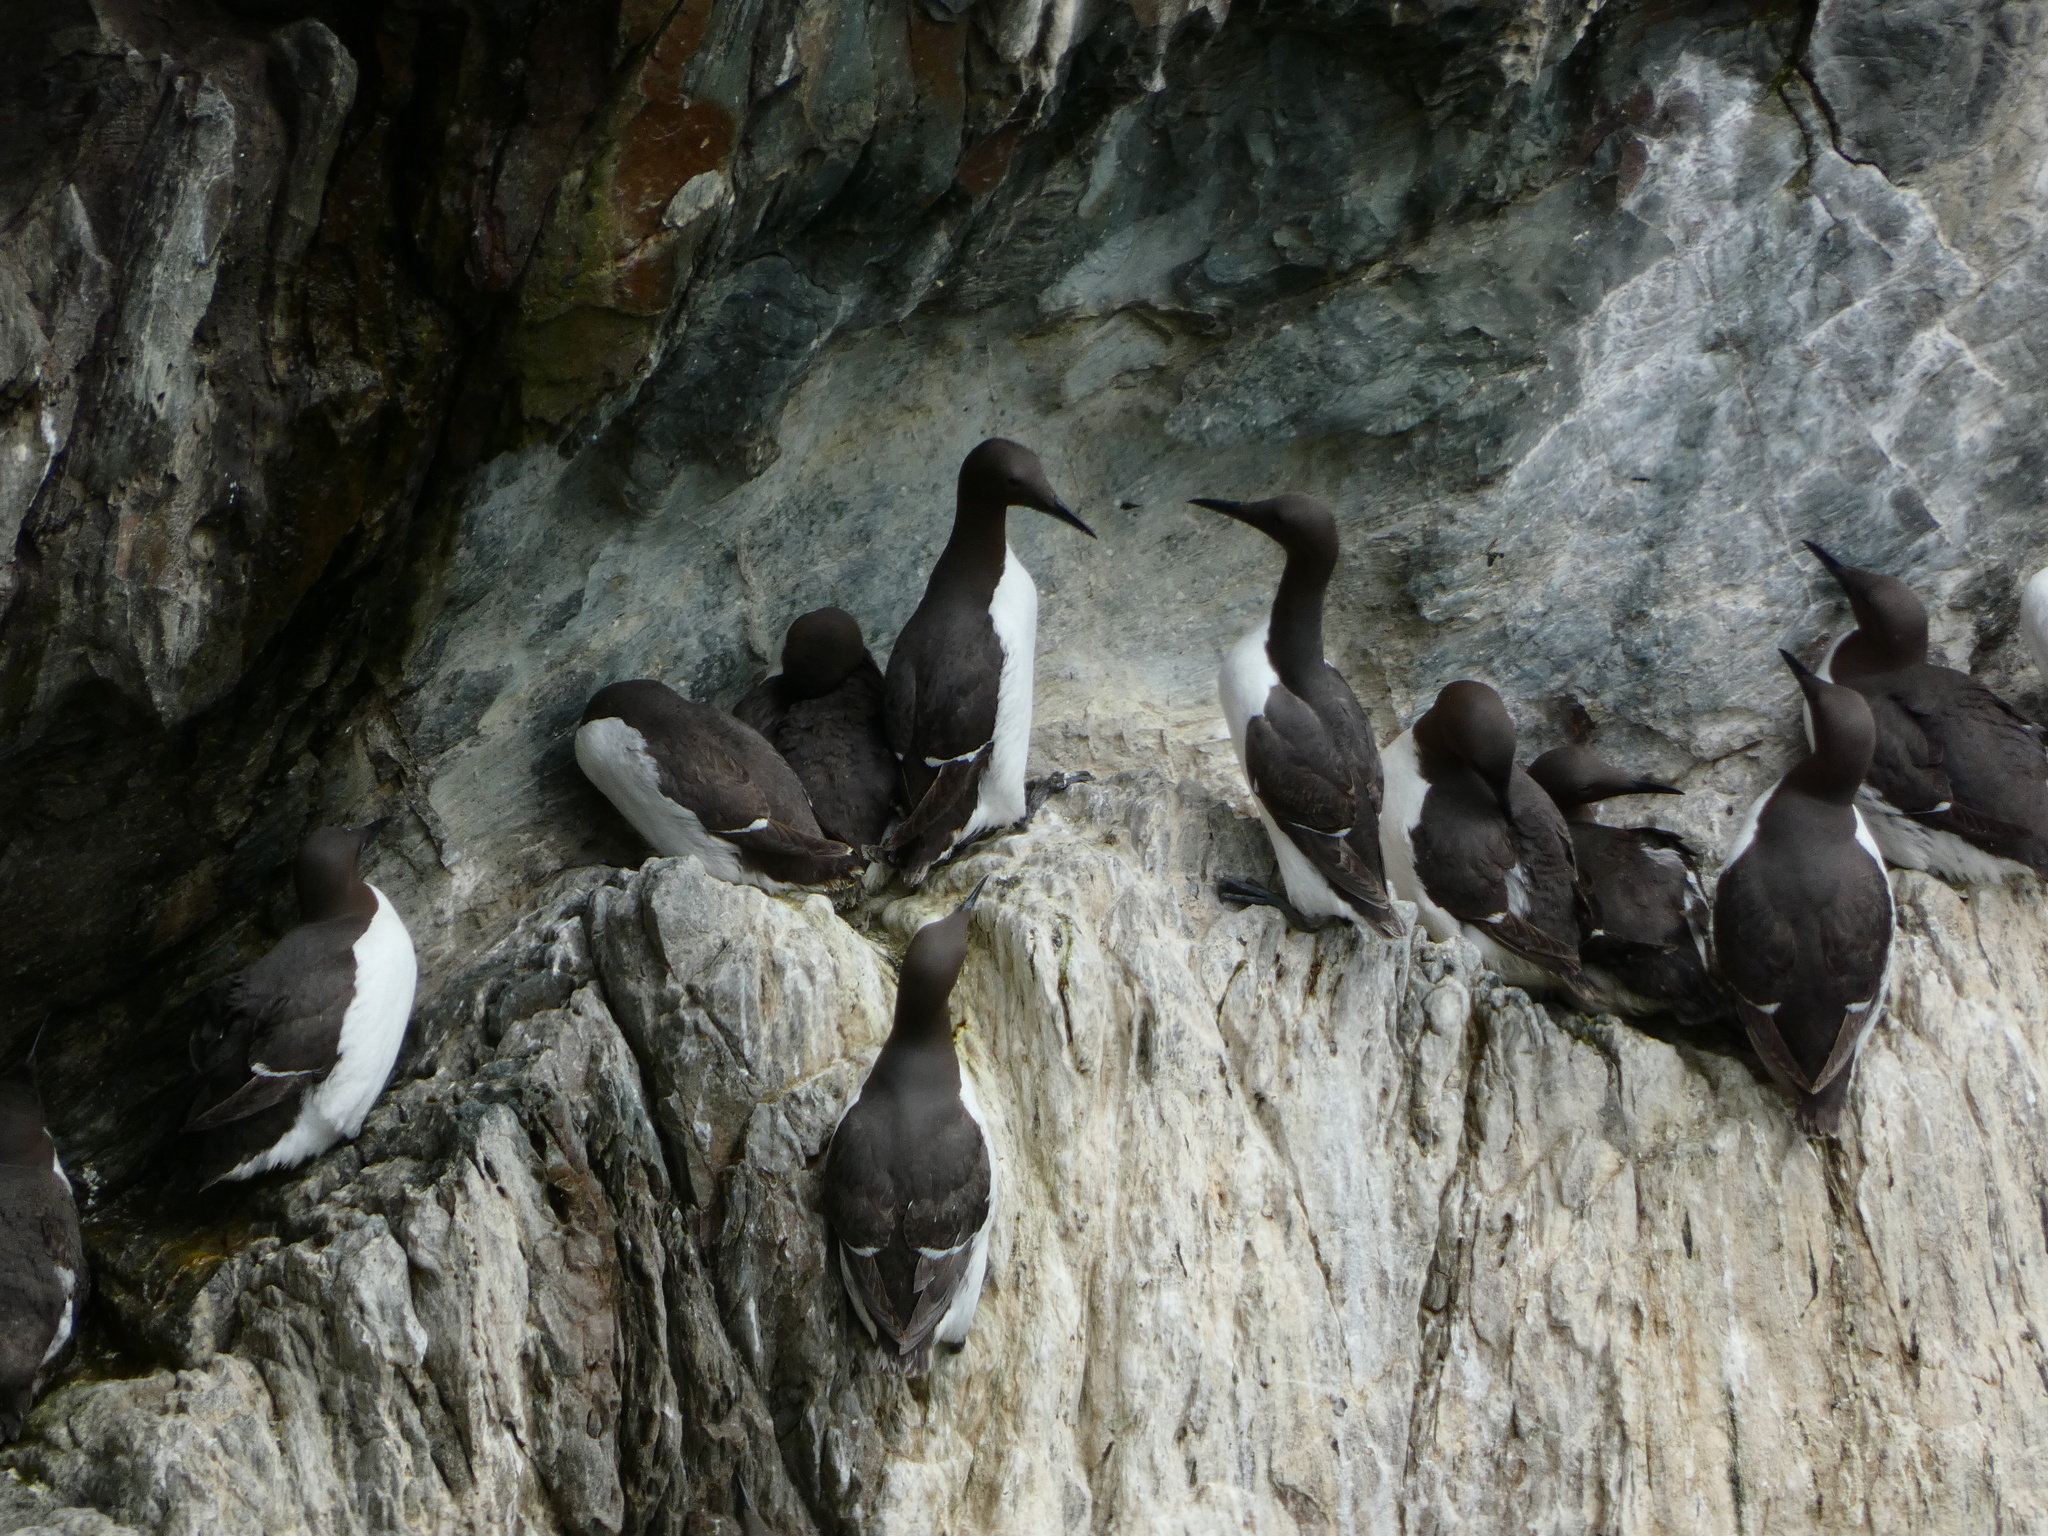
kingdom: Animalia
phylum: Chordata
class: Aves
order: Charadriiformes
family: Alcidae
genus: Uria
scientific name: Uria aalge
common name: Common murre
